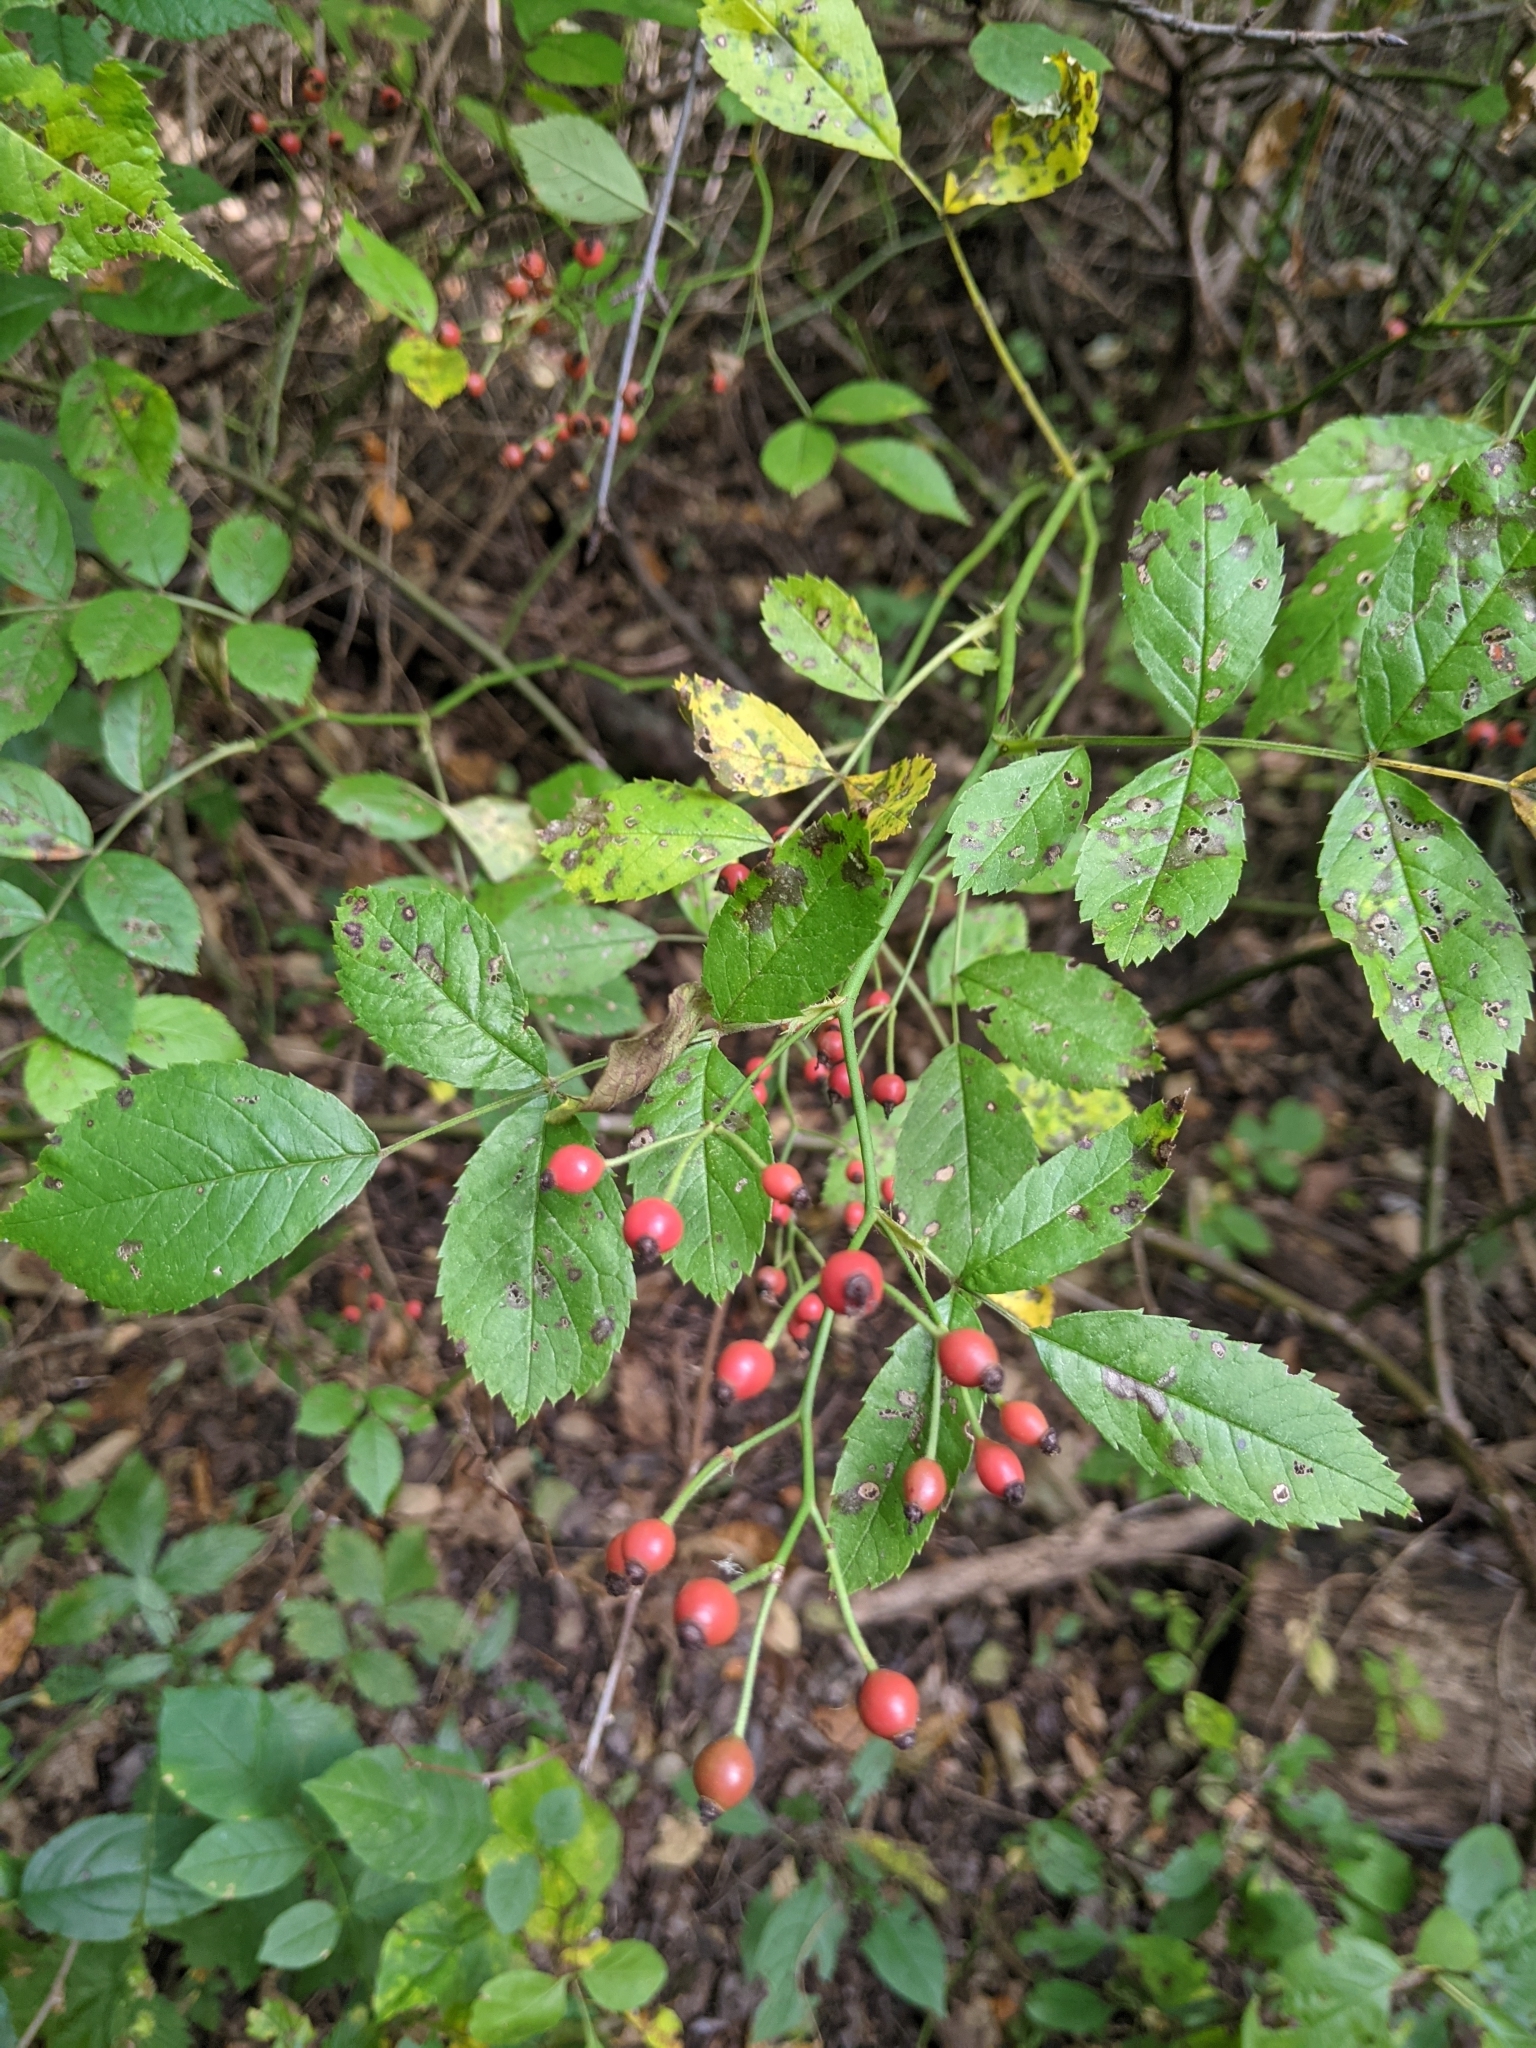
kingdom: Plantae
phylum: Tracheophyta
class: Magnoliopsida
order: Rosales
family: Rosaceae
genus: Rosa
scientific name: Rosa multiflora
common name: Multiflora rose
